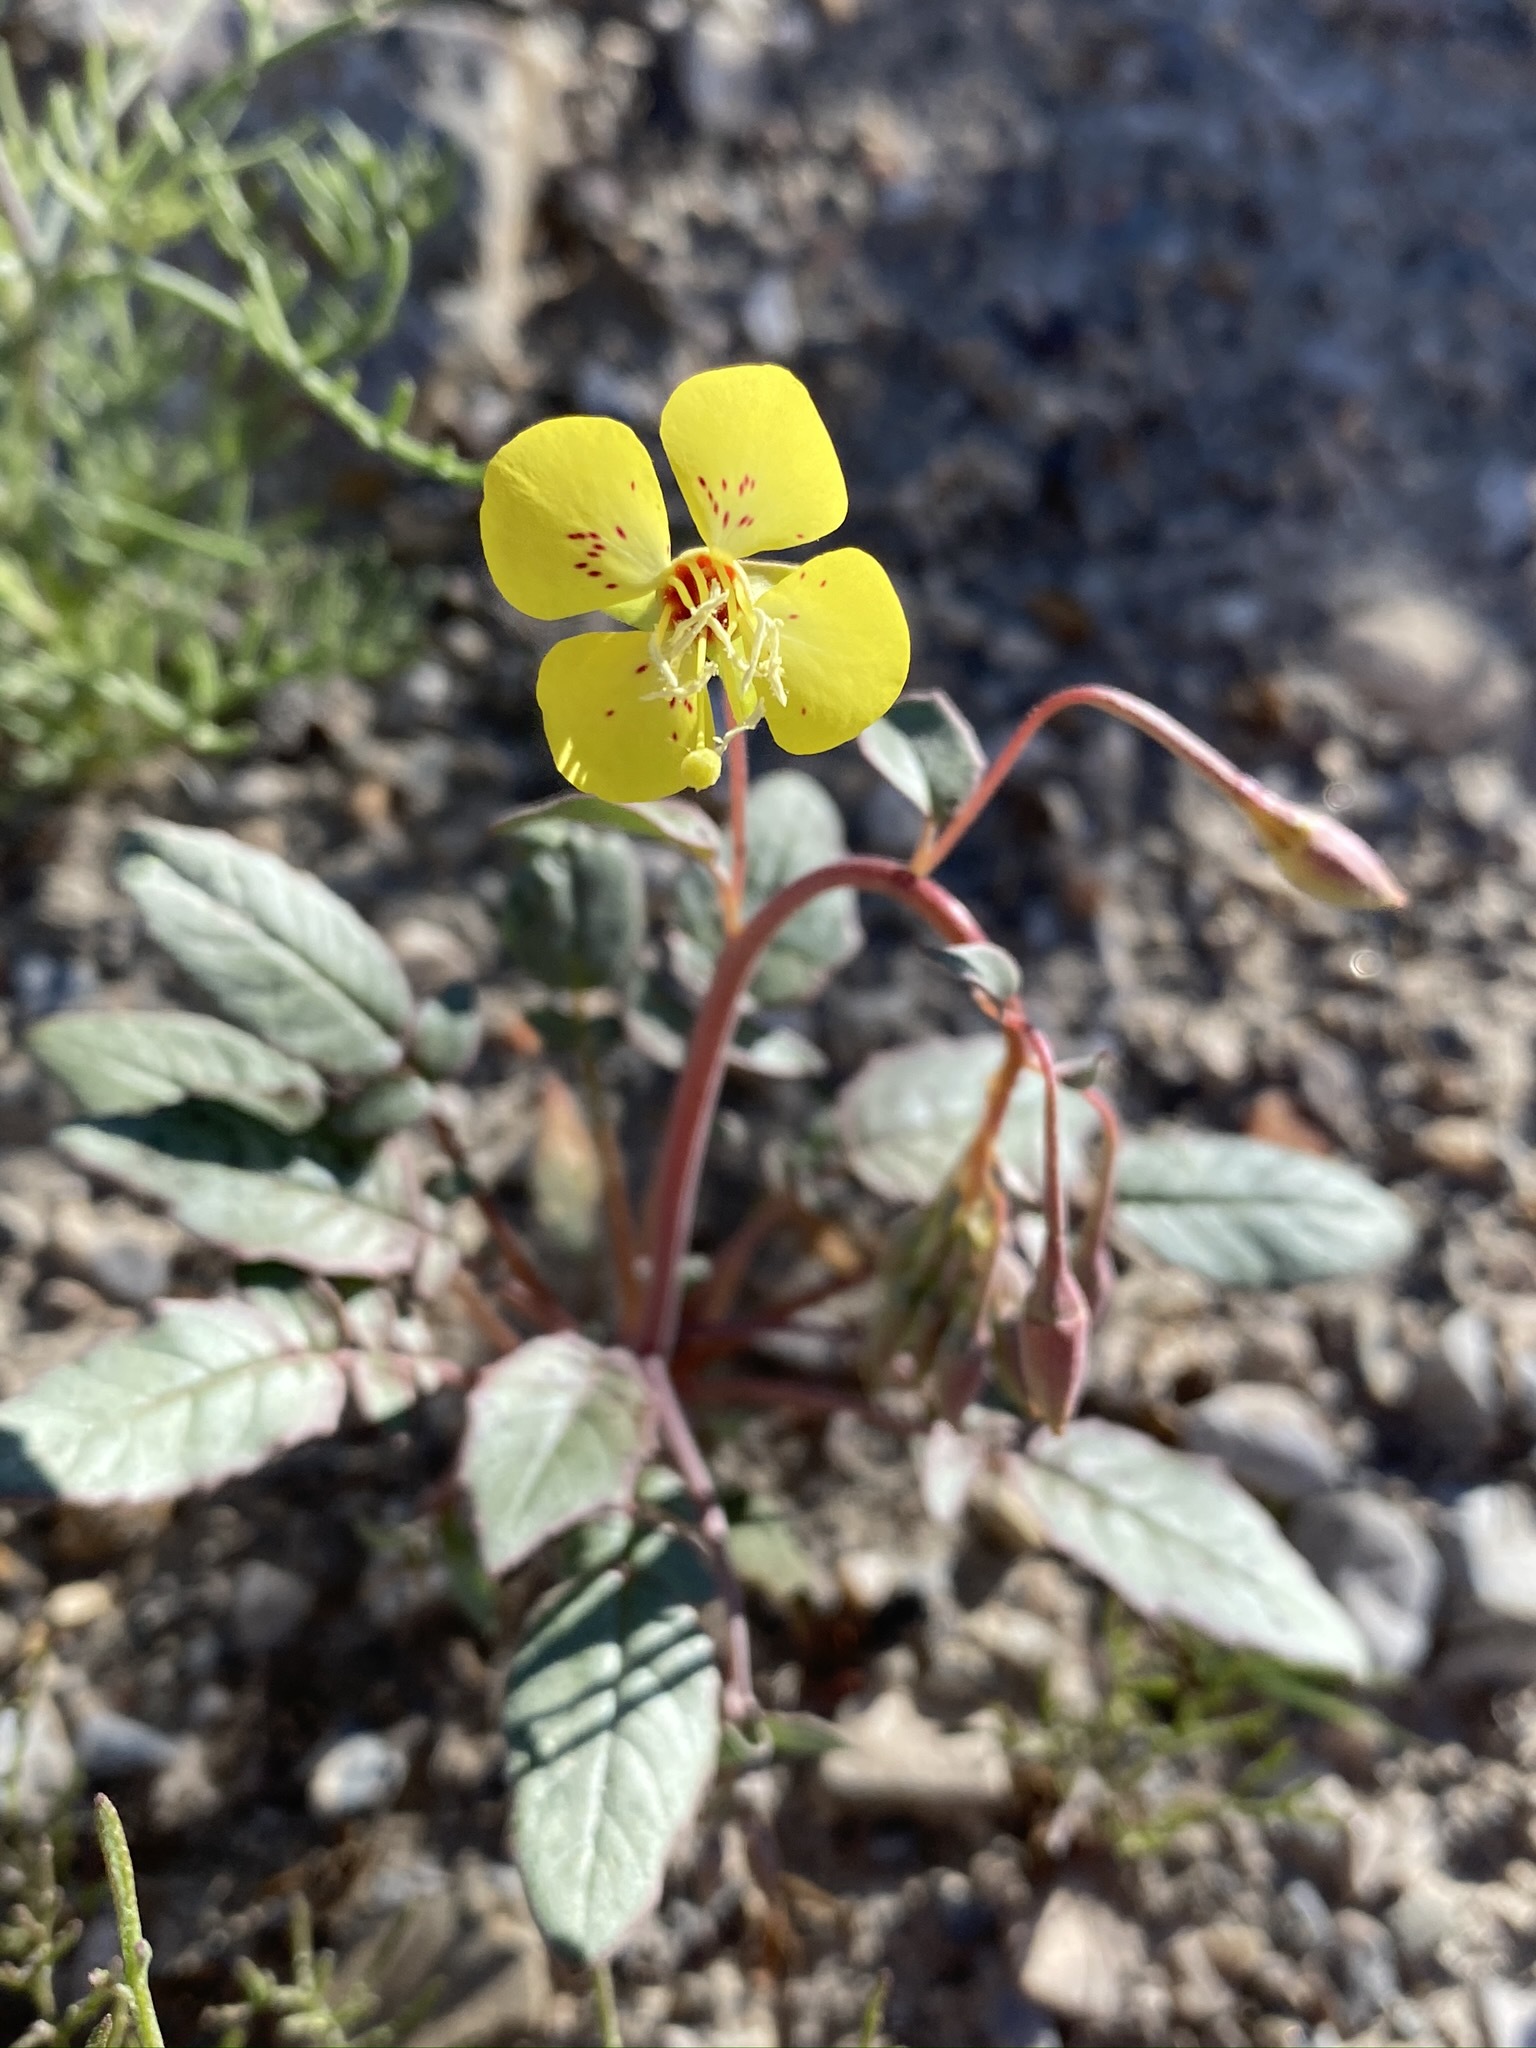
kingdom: Plantae
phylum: Tracheophyta
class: Magnoliopsida
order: Myrtales
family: Onagraceae
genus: Chylismia
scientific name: Chylismia claviformis
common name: Browneyes
